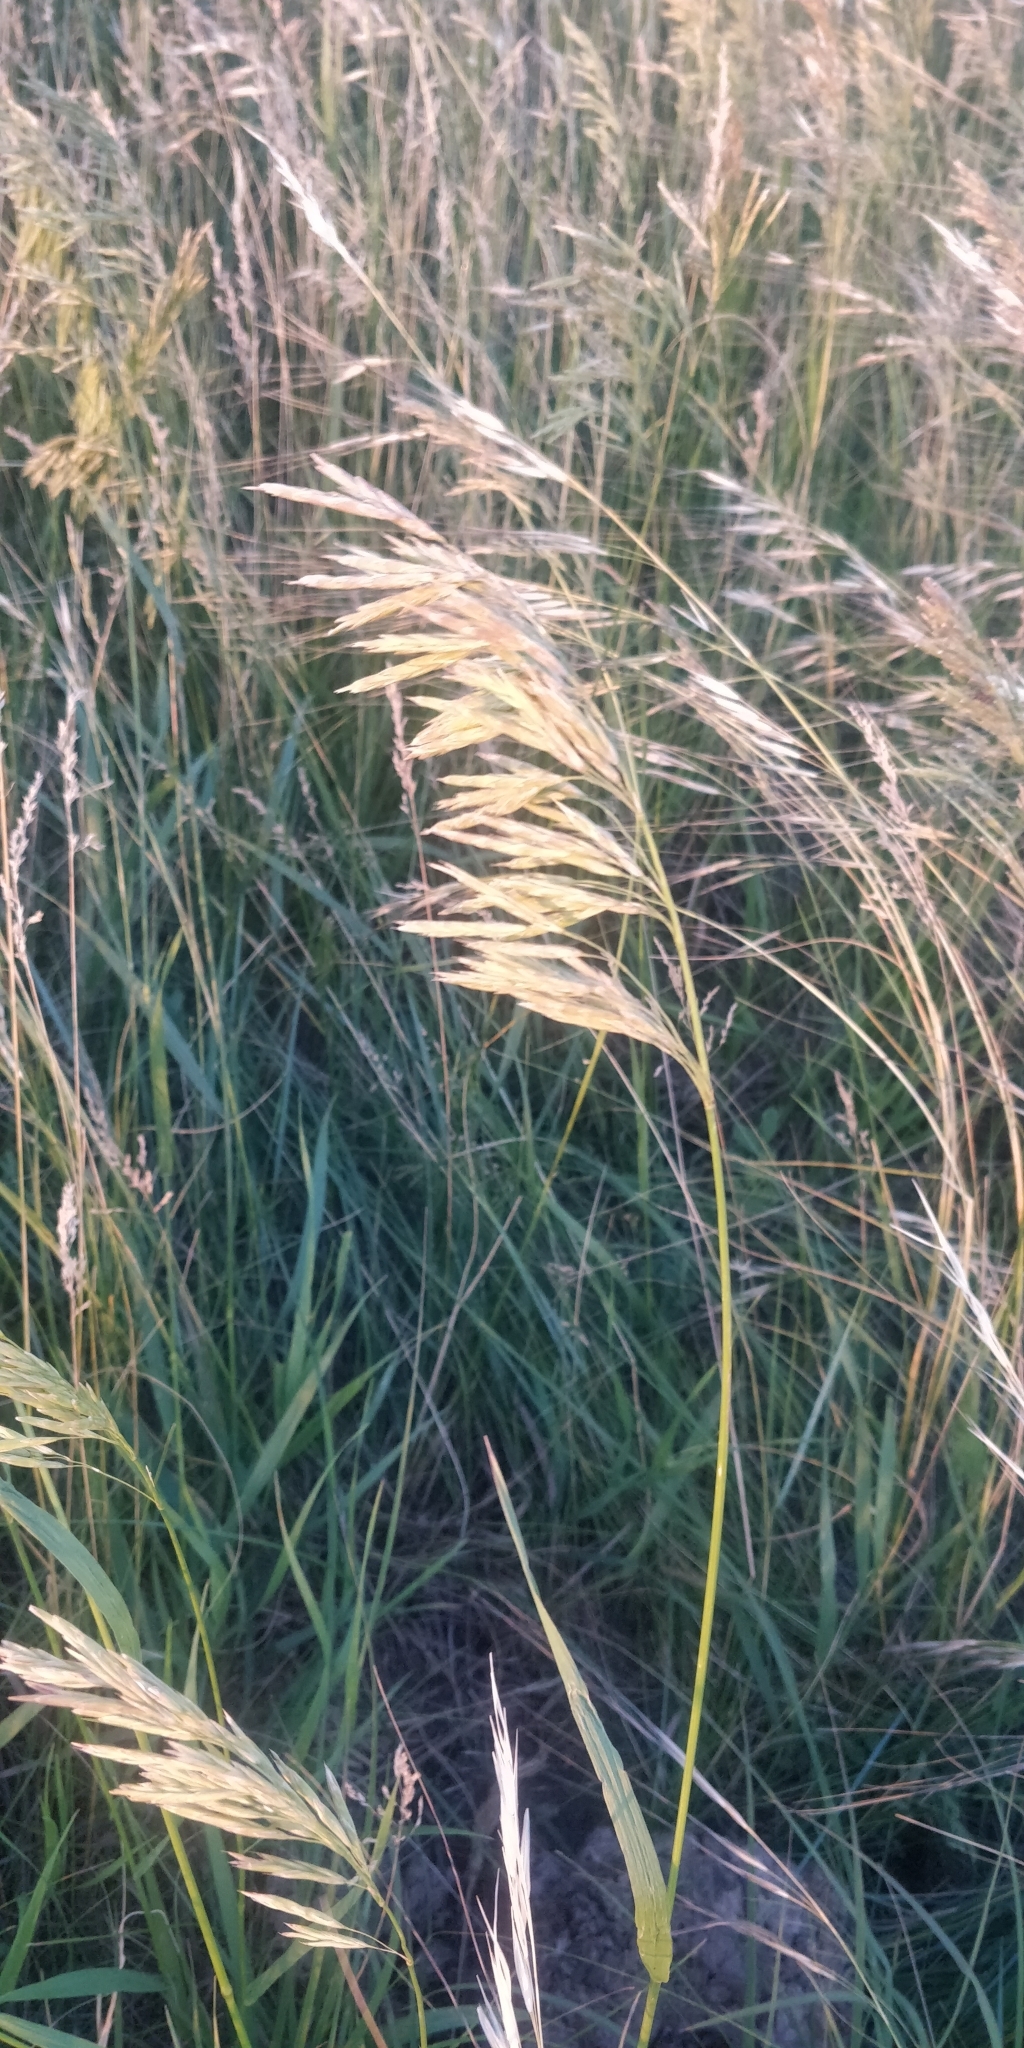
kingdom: Plantae
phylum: Tracheophyta
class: Liliopsida
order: Poales
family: Poaceae
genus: Bromus
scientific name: Bromus inermis
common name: Smooth brome
